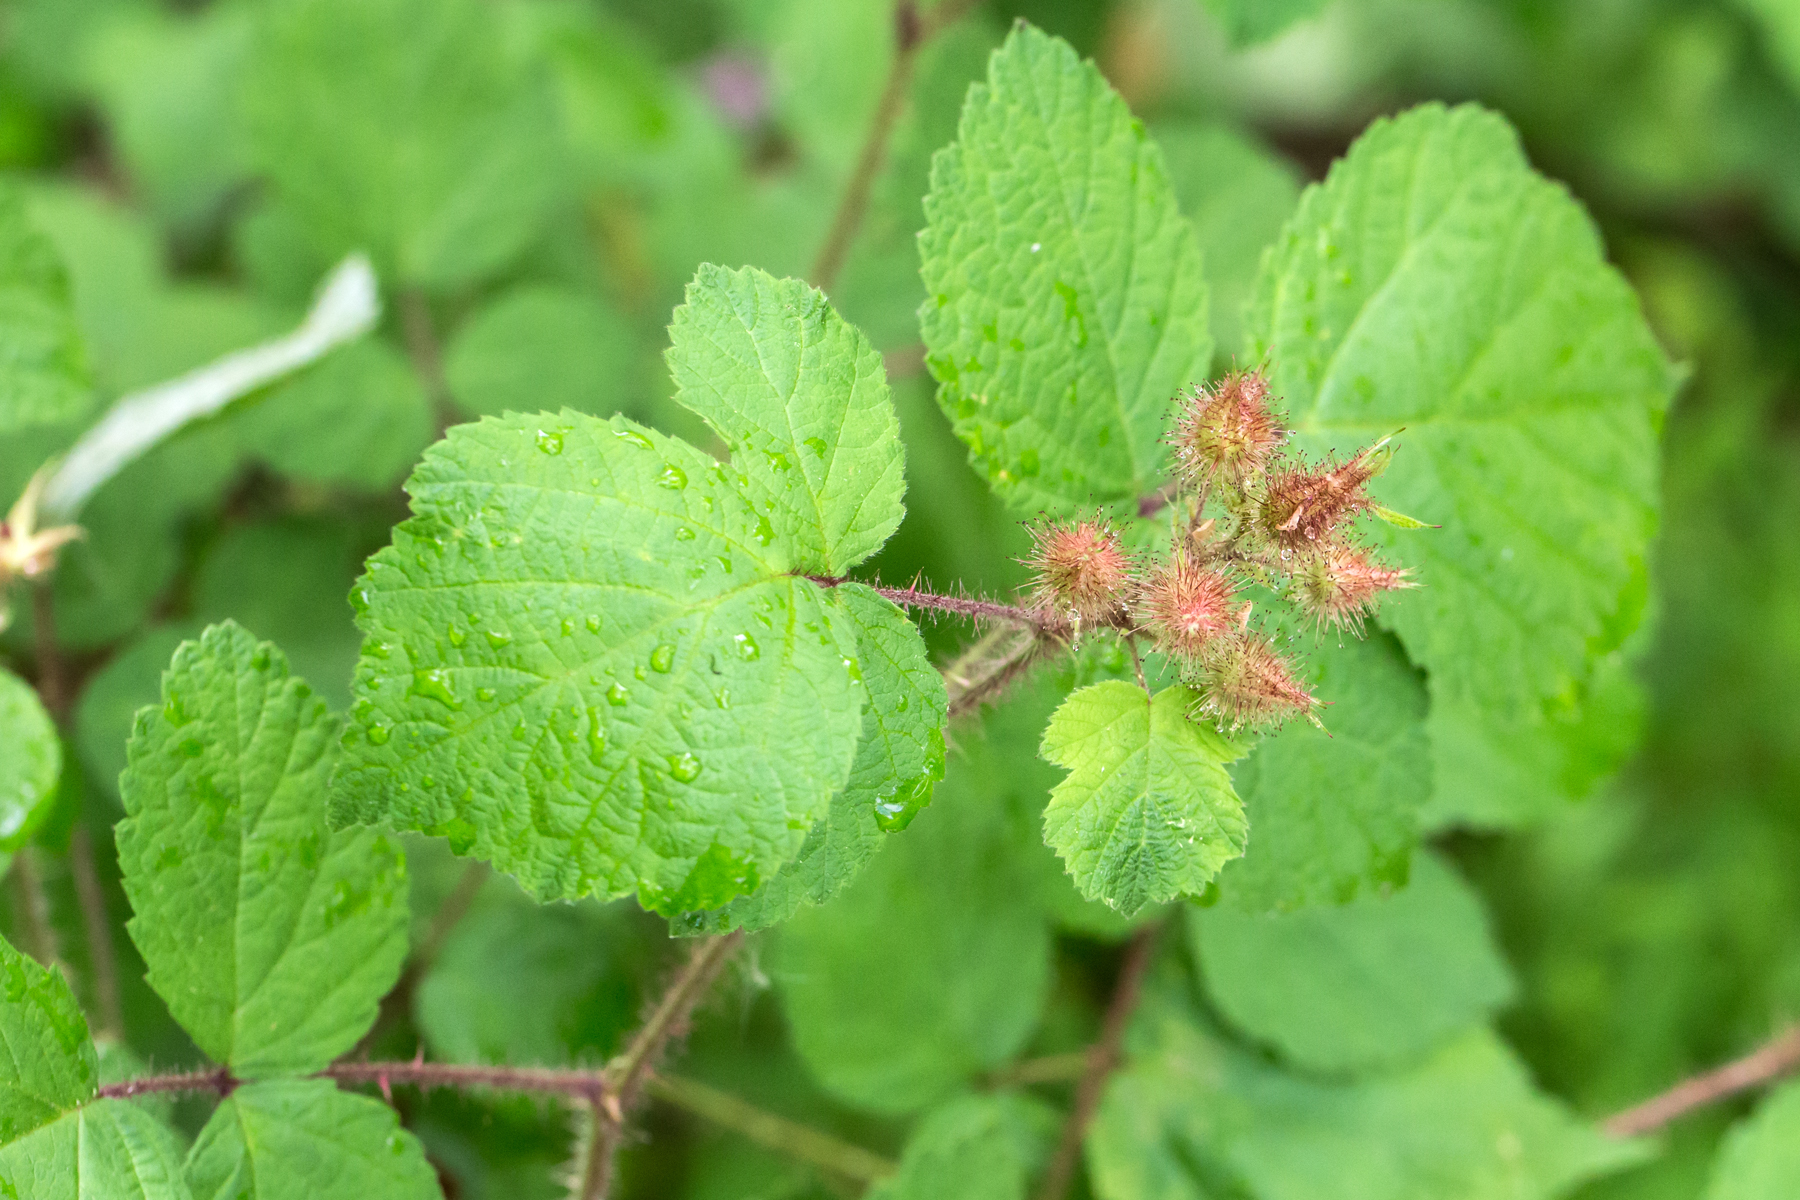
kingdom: Plantae
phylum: Tracheophyta
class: Magnoliopsida
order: Rosales
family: Rosaceae
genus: Rubus
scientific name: Rubus phoenicolasius
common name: Japanese wineberry
